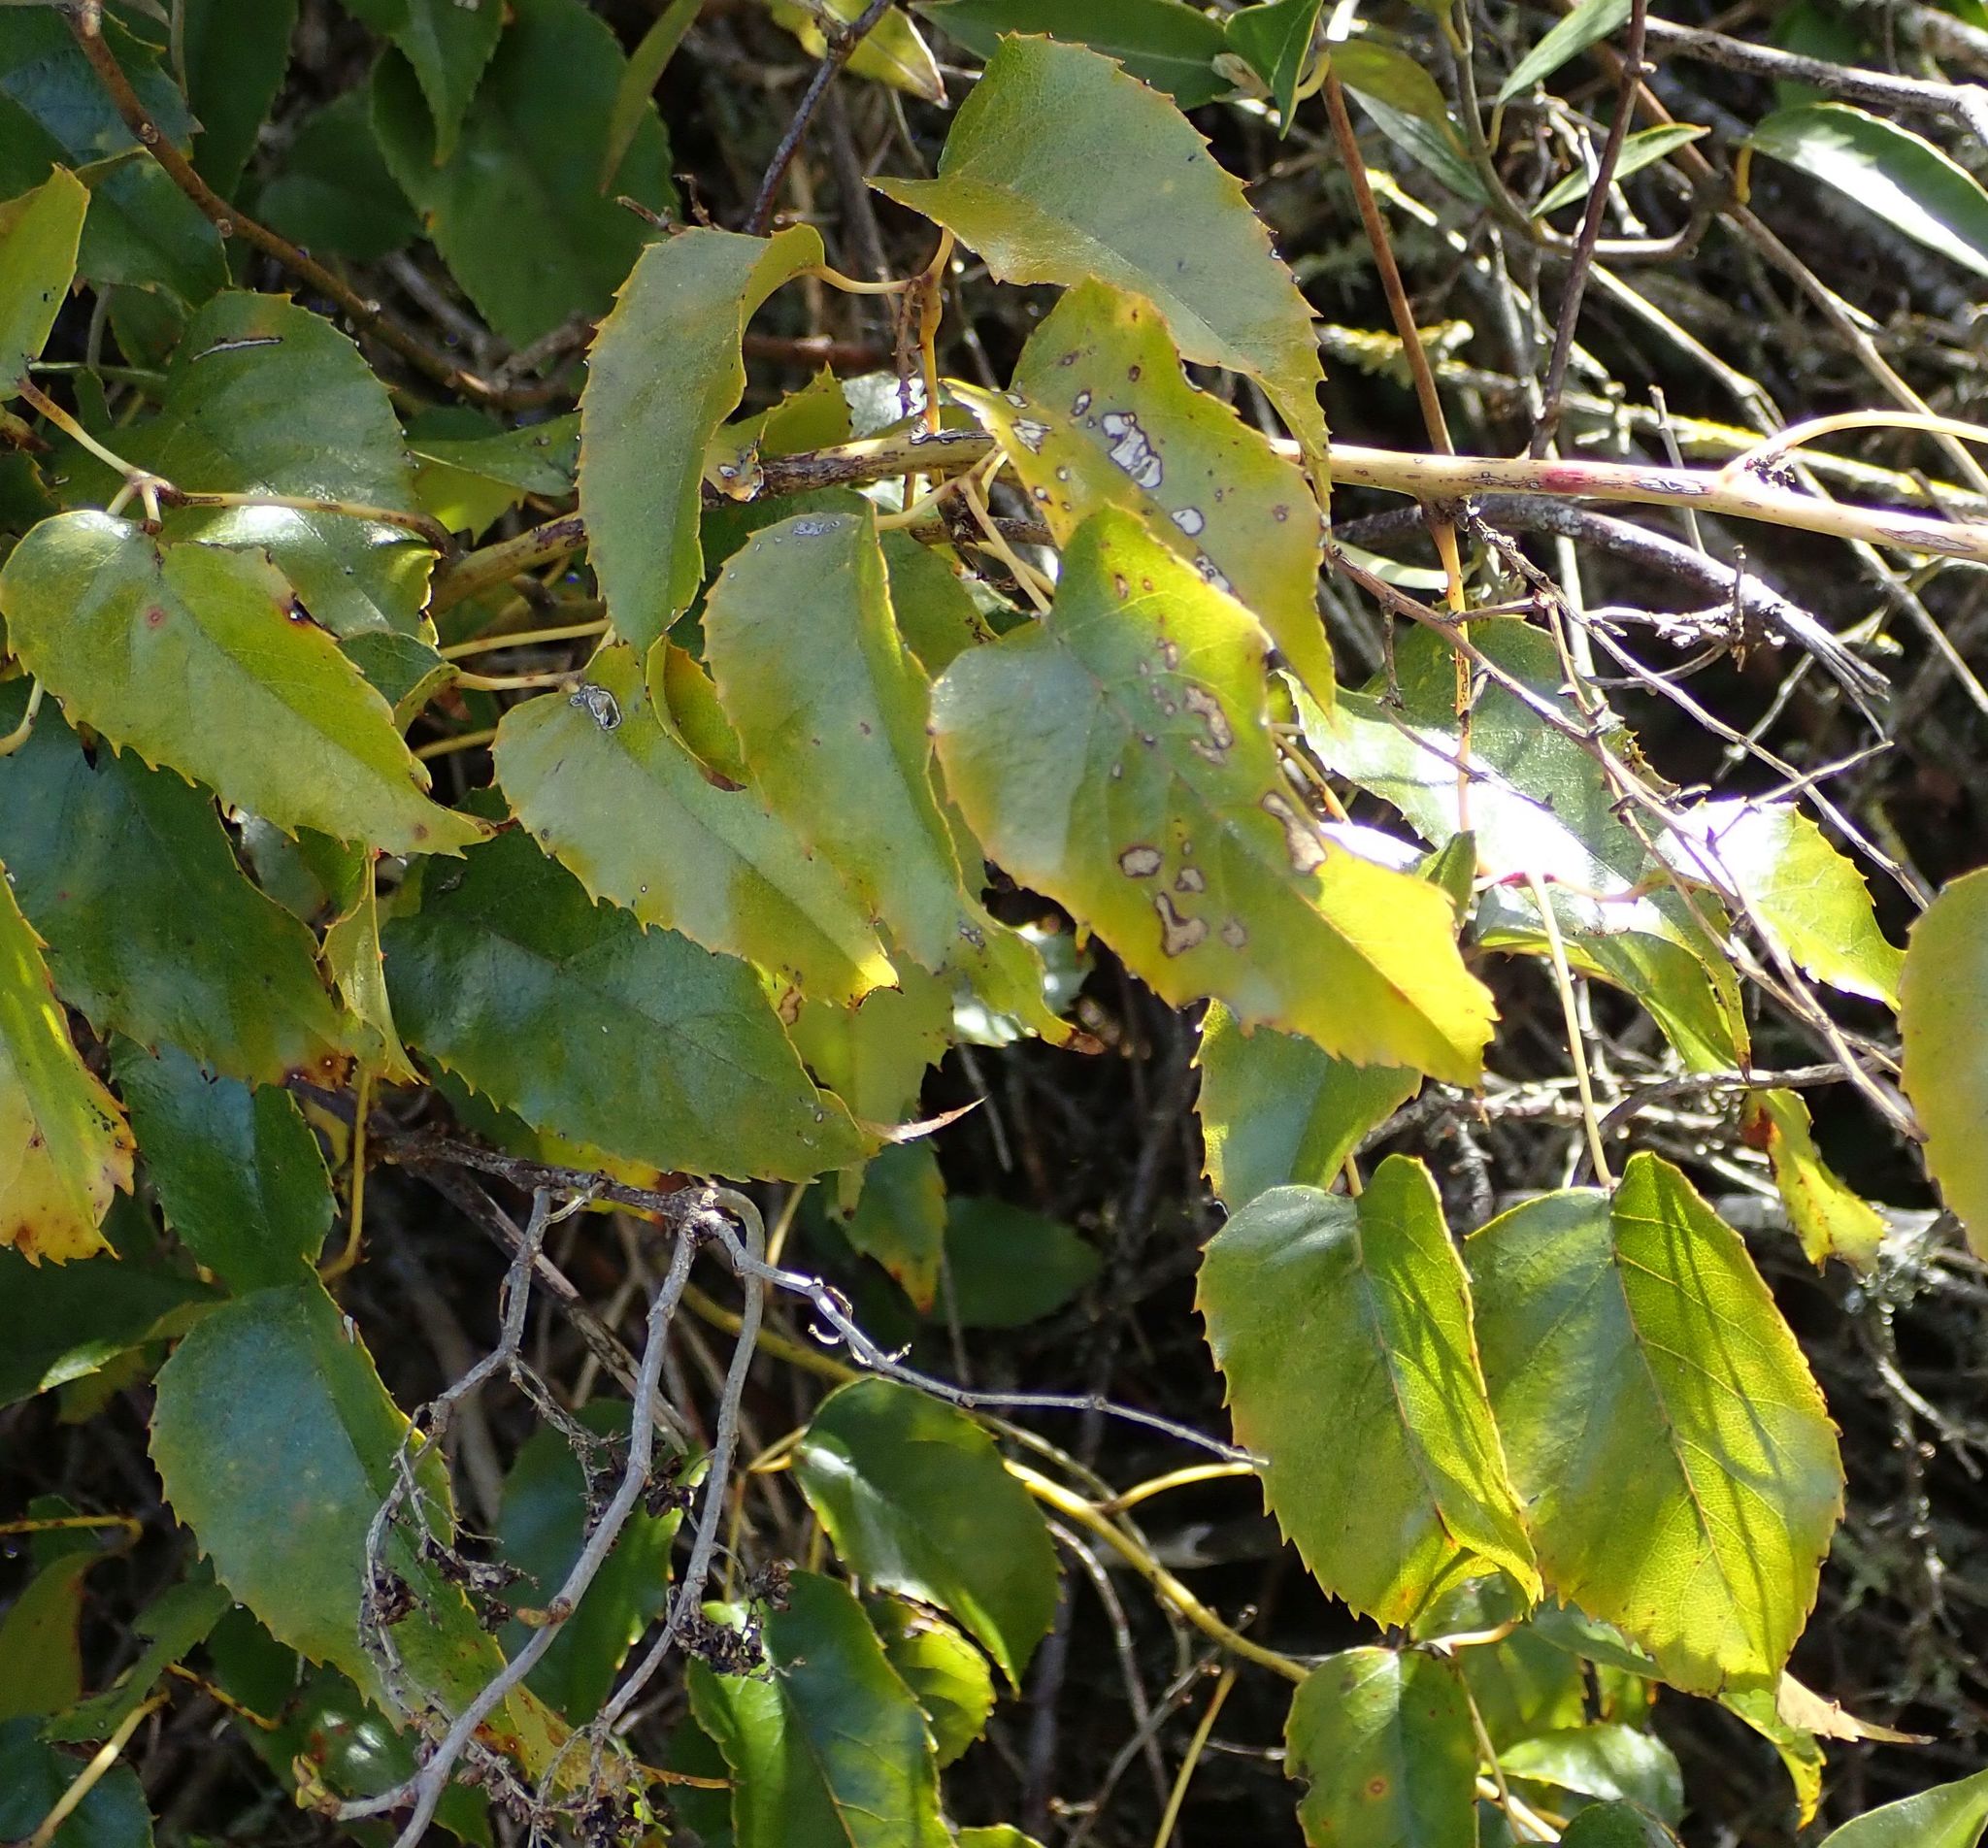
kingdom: Plantae
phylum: Tracheophyta
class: Magnoliopsida
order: Rosales
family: Rosaceae
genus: Rubus
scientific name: Rubus cissoides
